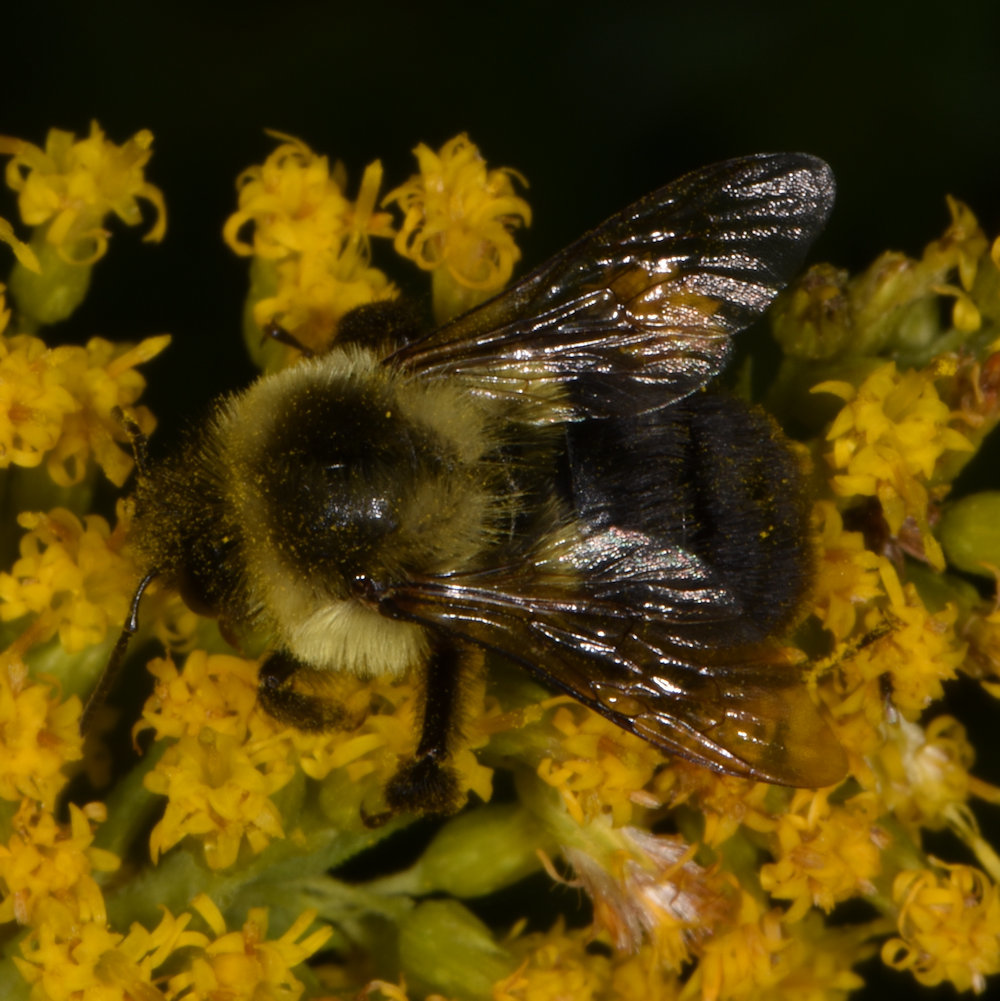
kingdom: Animalia
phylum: Arthropoda
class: Insecta
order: Hymenoptera
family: Apidae
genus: Bombus
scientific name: Bombus impatiens
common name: Common eastern bumble bee
